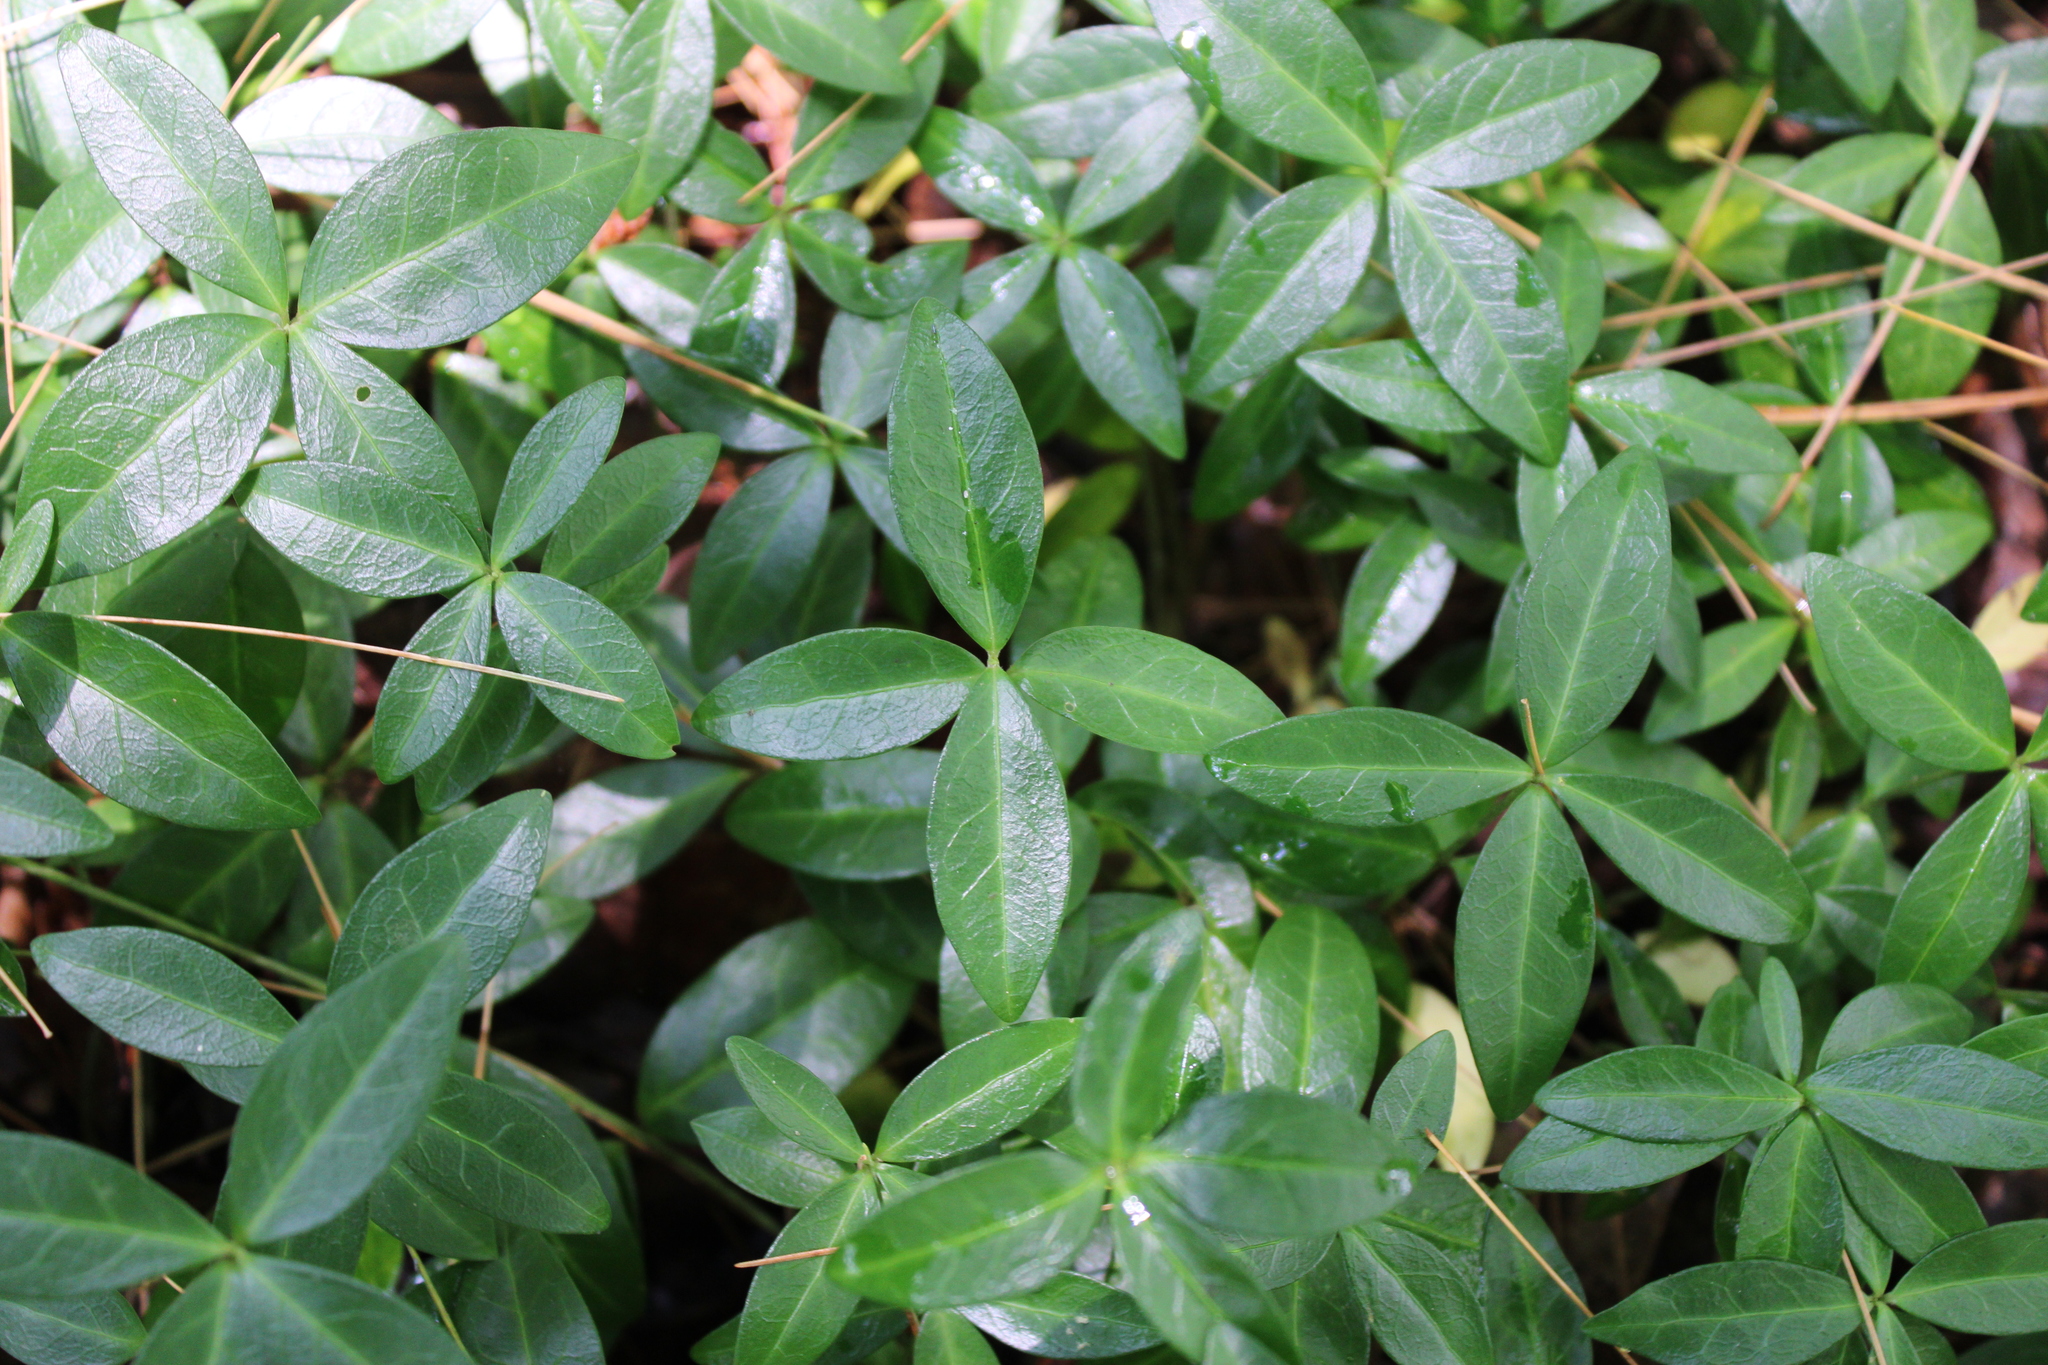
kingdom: Plantae
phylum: Tracheophyta
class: Magnoliopsida
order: Gentianales
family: Apocynaceae
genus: Vinca
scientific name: Vinca minor
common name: Lesser periwinkle
